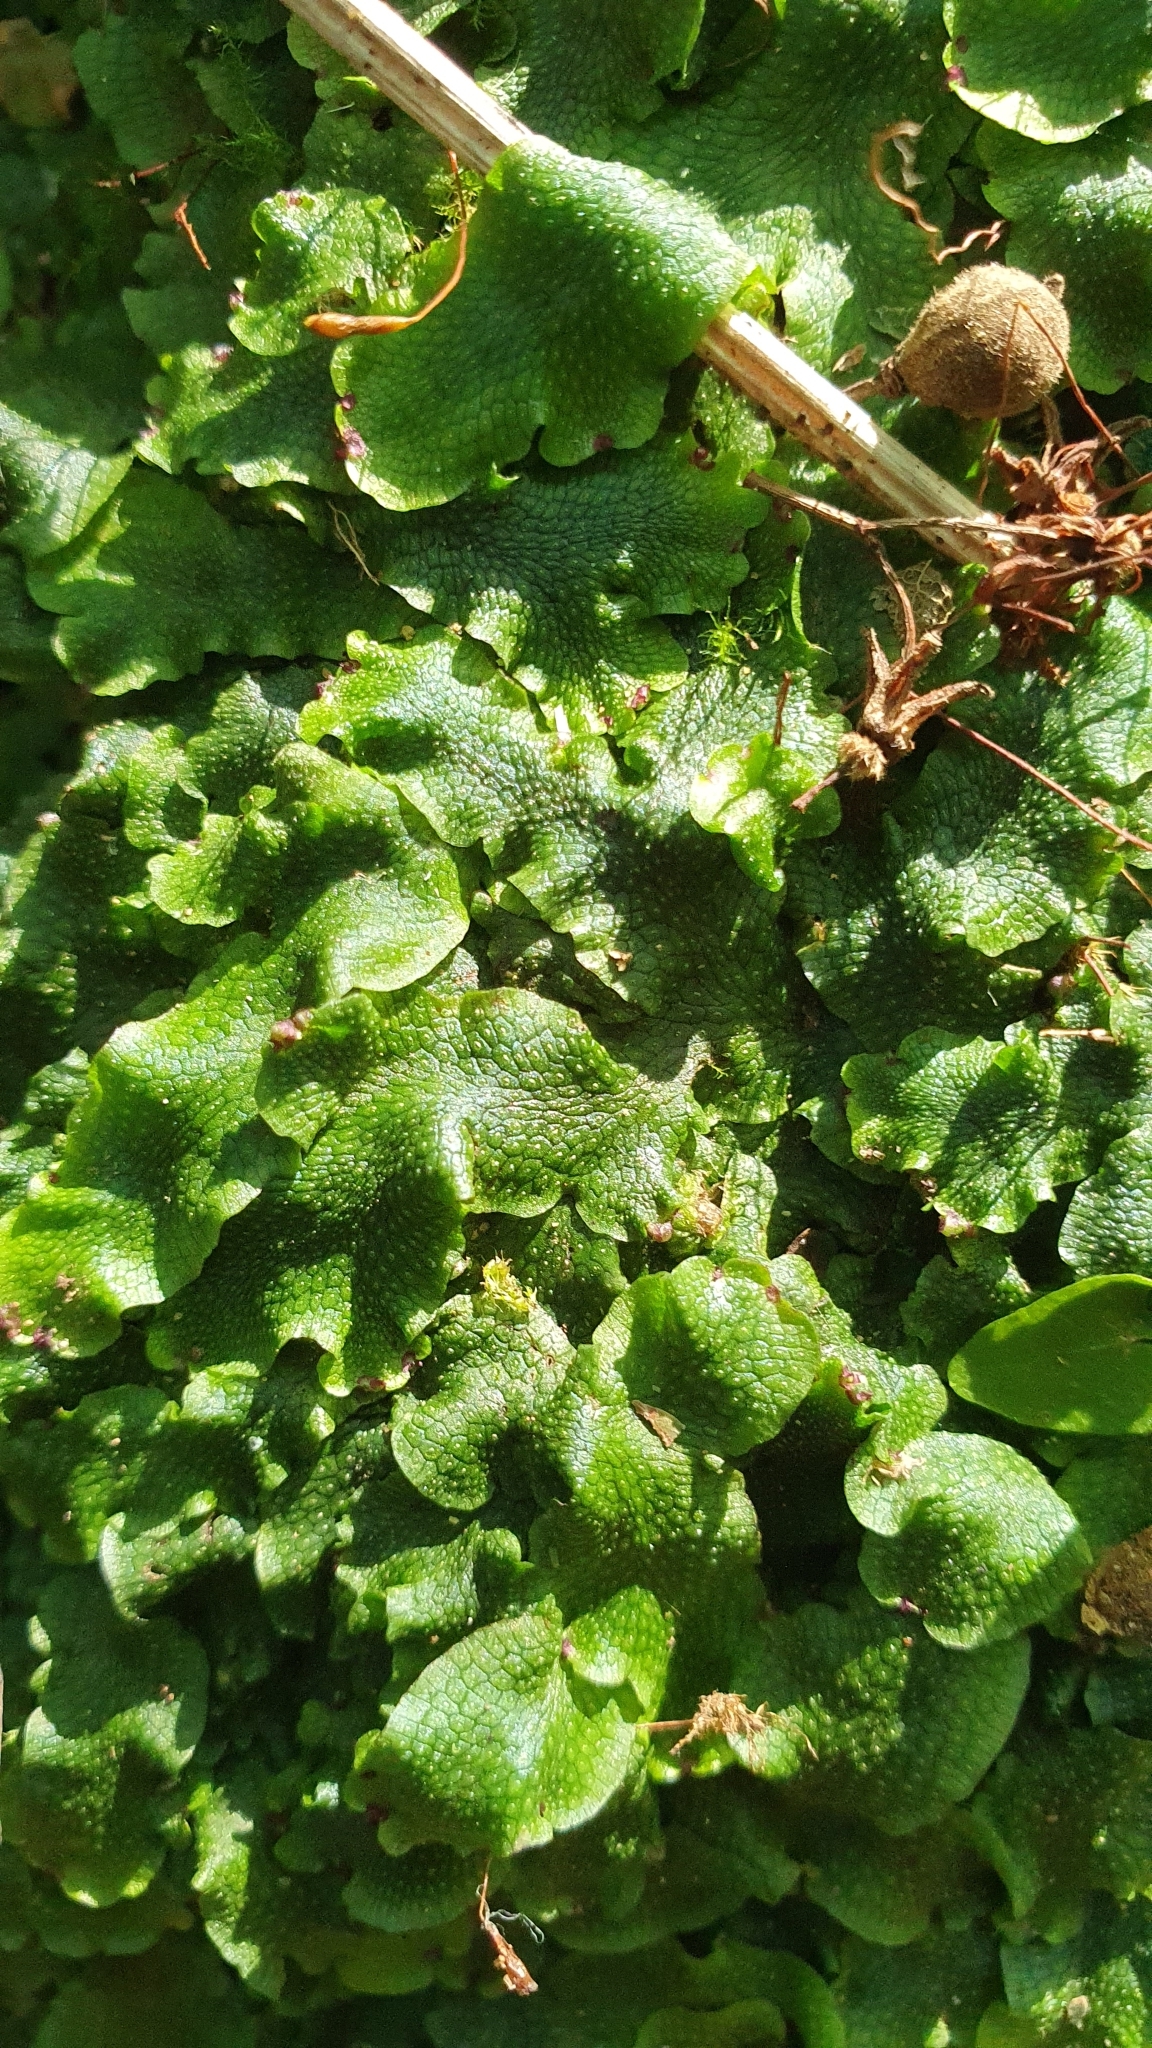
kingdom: Plantae
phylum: Marchantiophyta
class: Marchantiopsida
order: Marchantiales
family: Conocephalaceae
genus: Conocephalum
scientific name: Conocephalum salebrosum
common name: Cat-tongue liverwort
